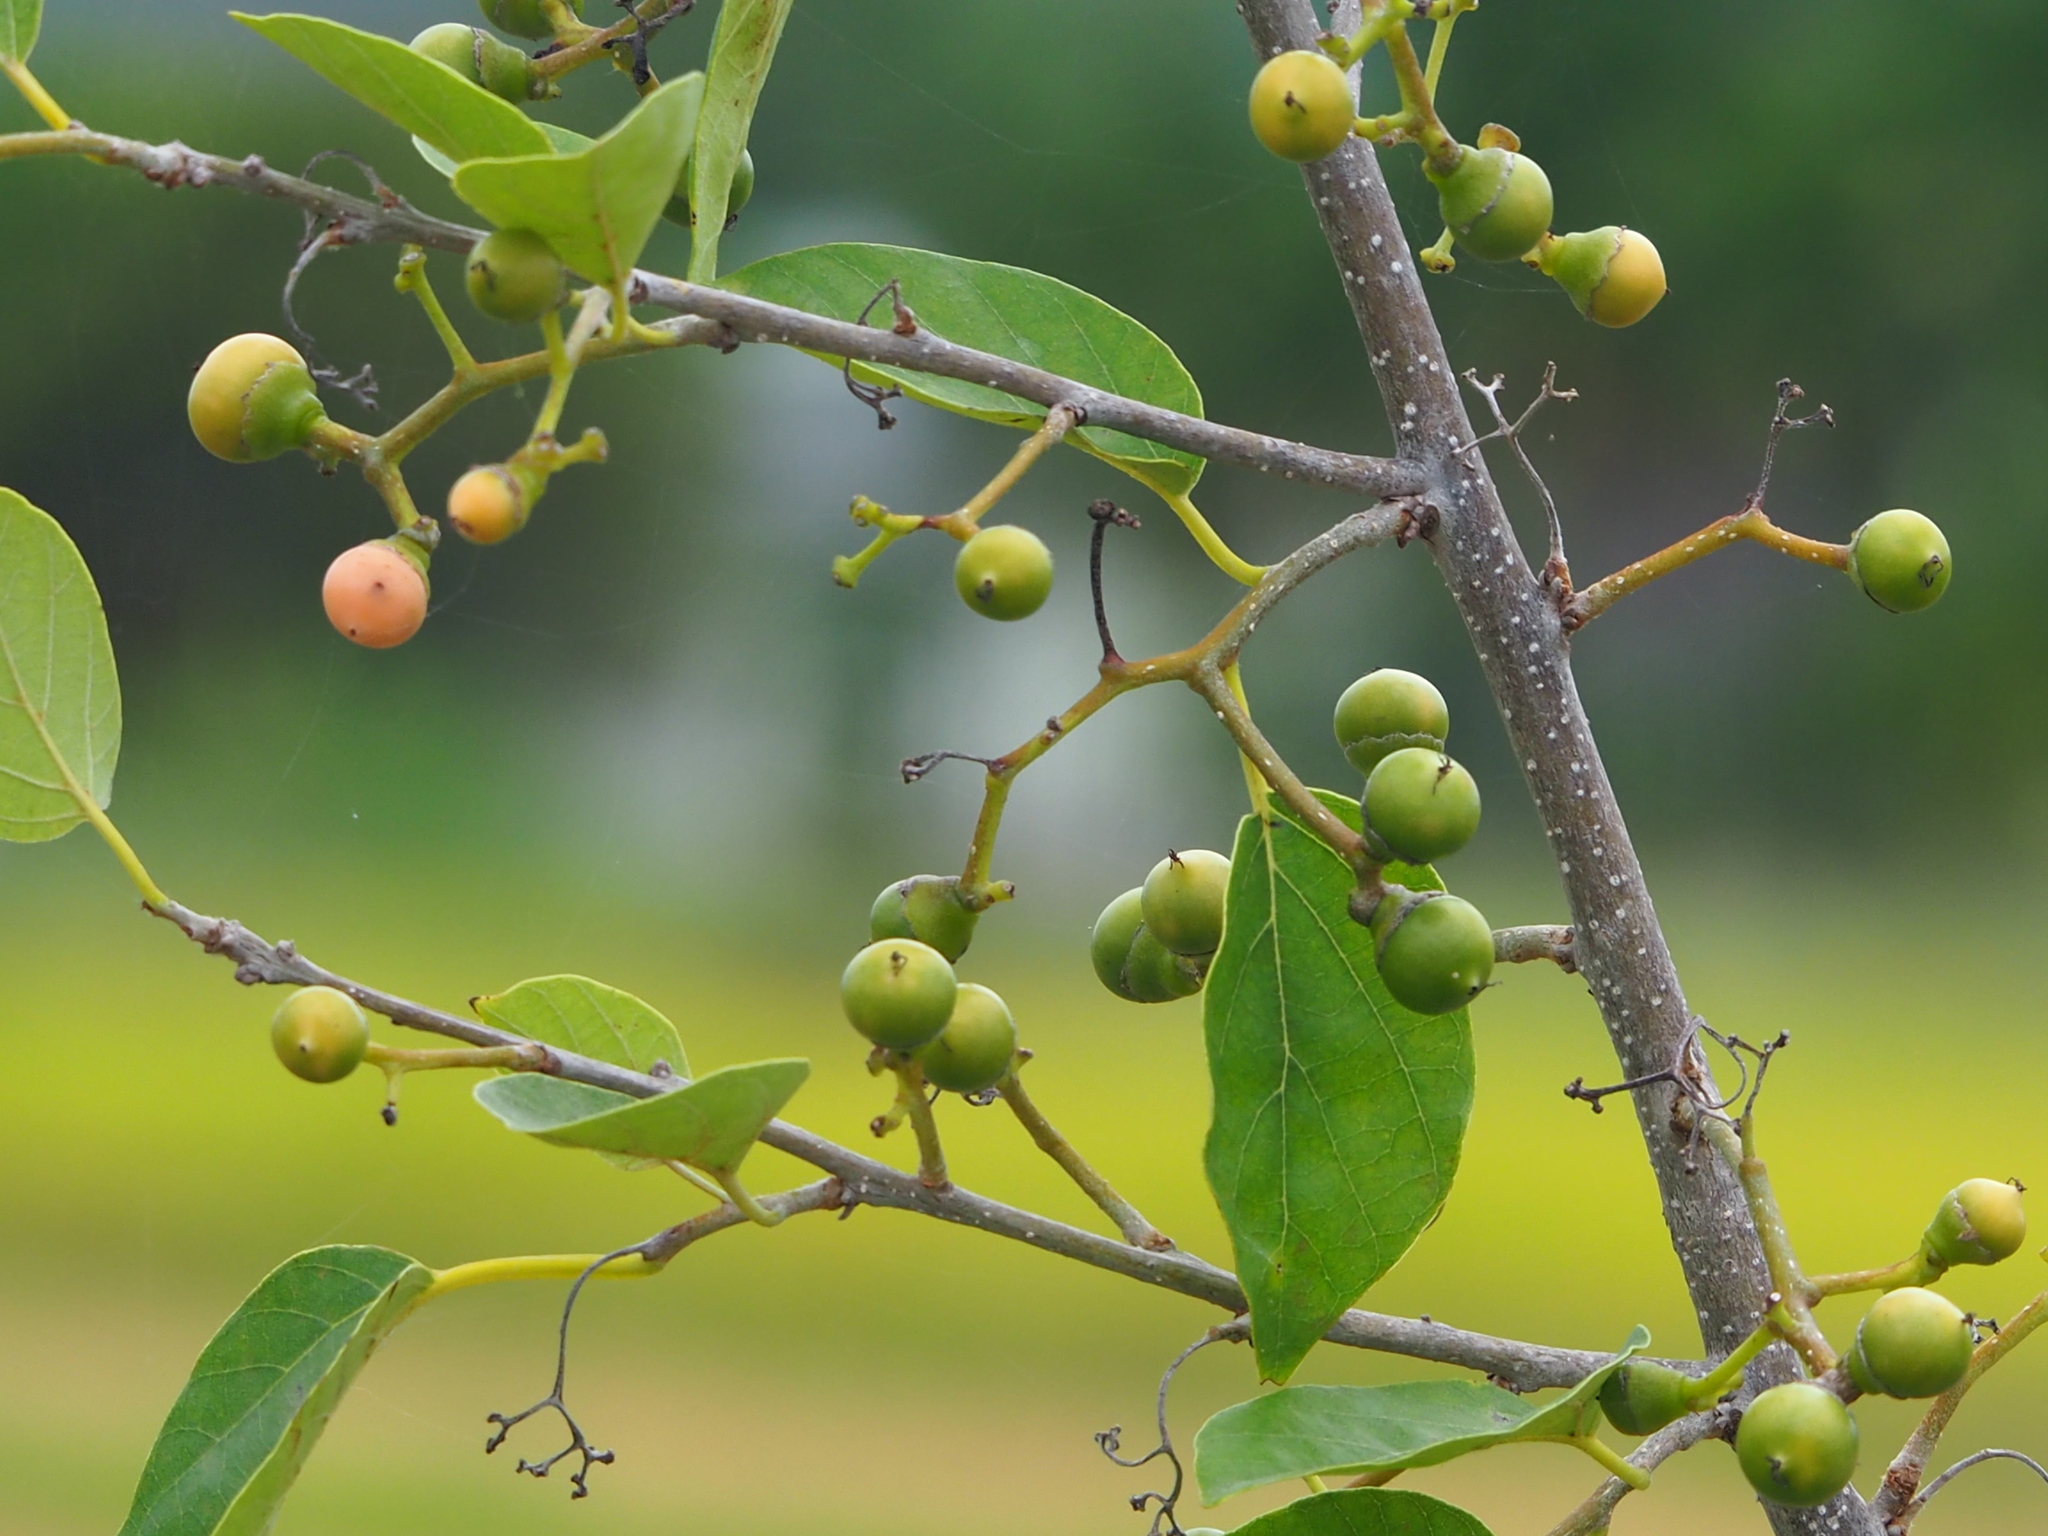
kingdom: Plantae
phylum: Tracheophyta
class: Magnoliopsida
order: Boraginales
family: Cordiaceae
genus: Cordia
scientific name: Cordia dichotoma
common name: Fragrant manjack
